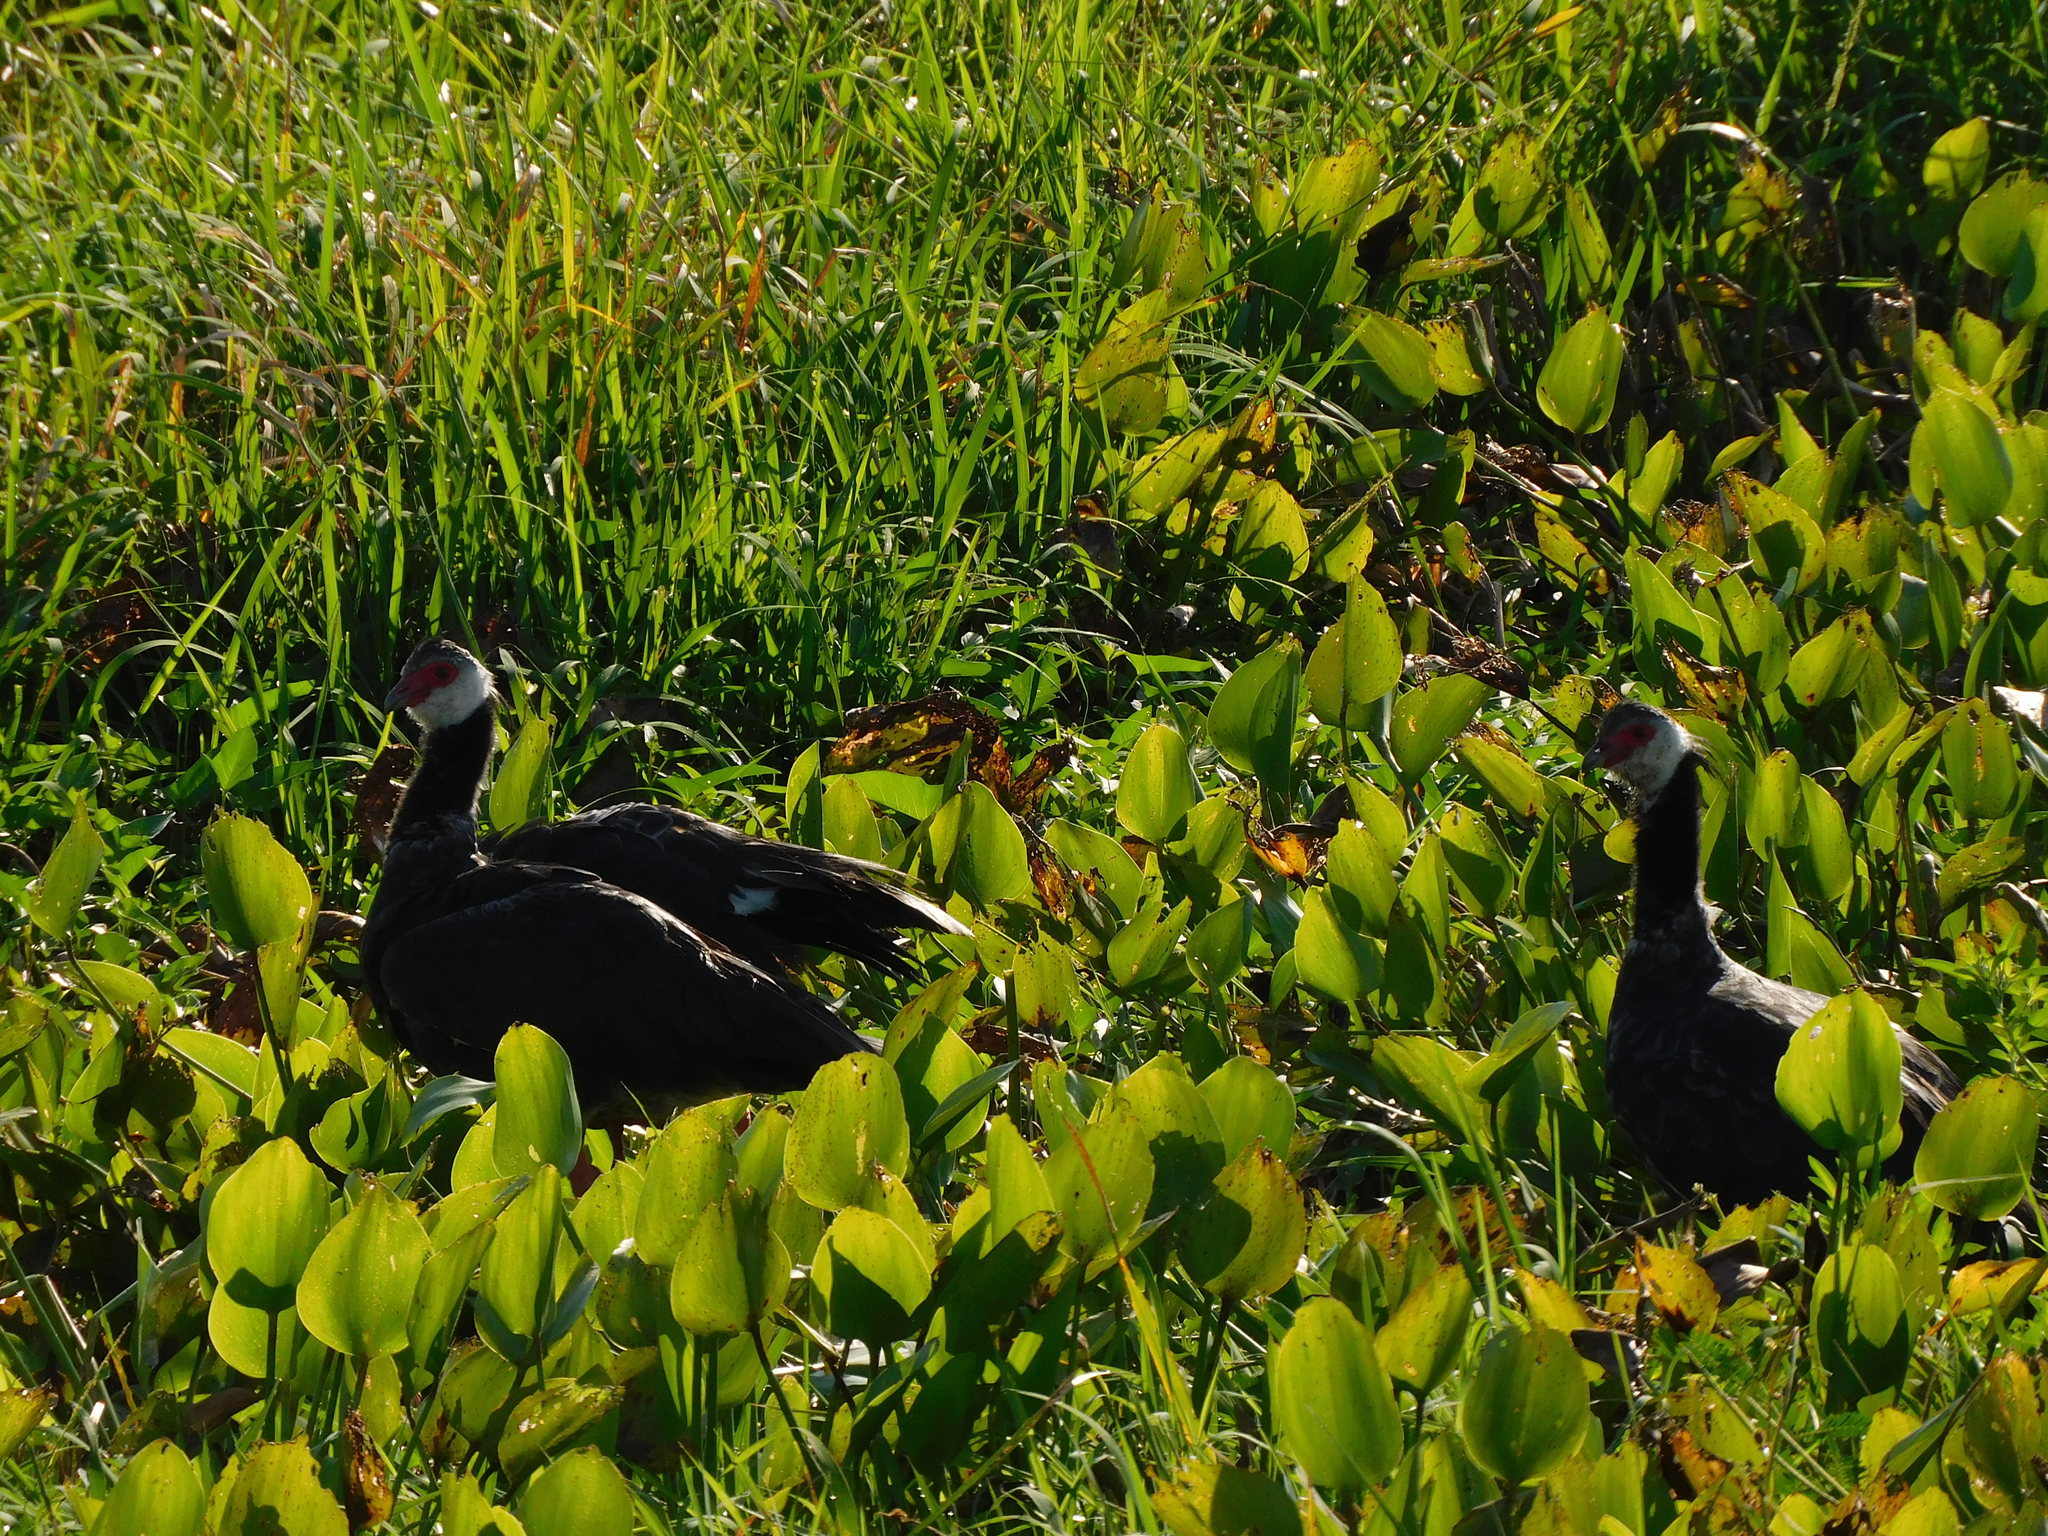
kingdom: Animalia
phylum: Chordata
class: Aves
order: Anseriformes
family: Anhimidae
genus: Chauna
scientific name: Chauna chavaria
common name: Northern screamer
